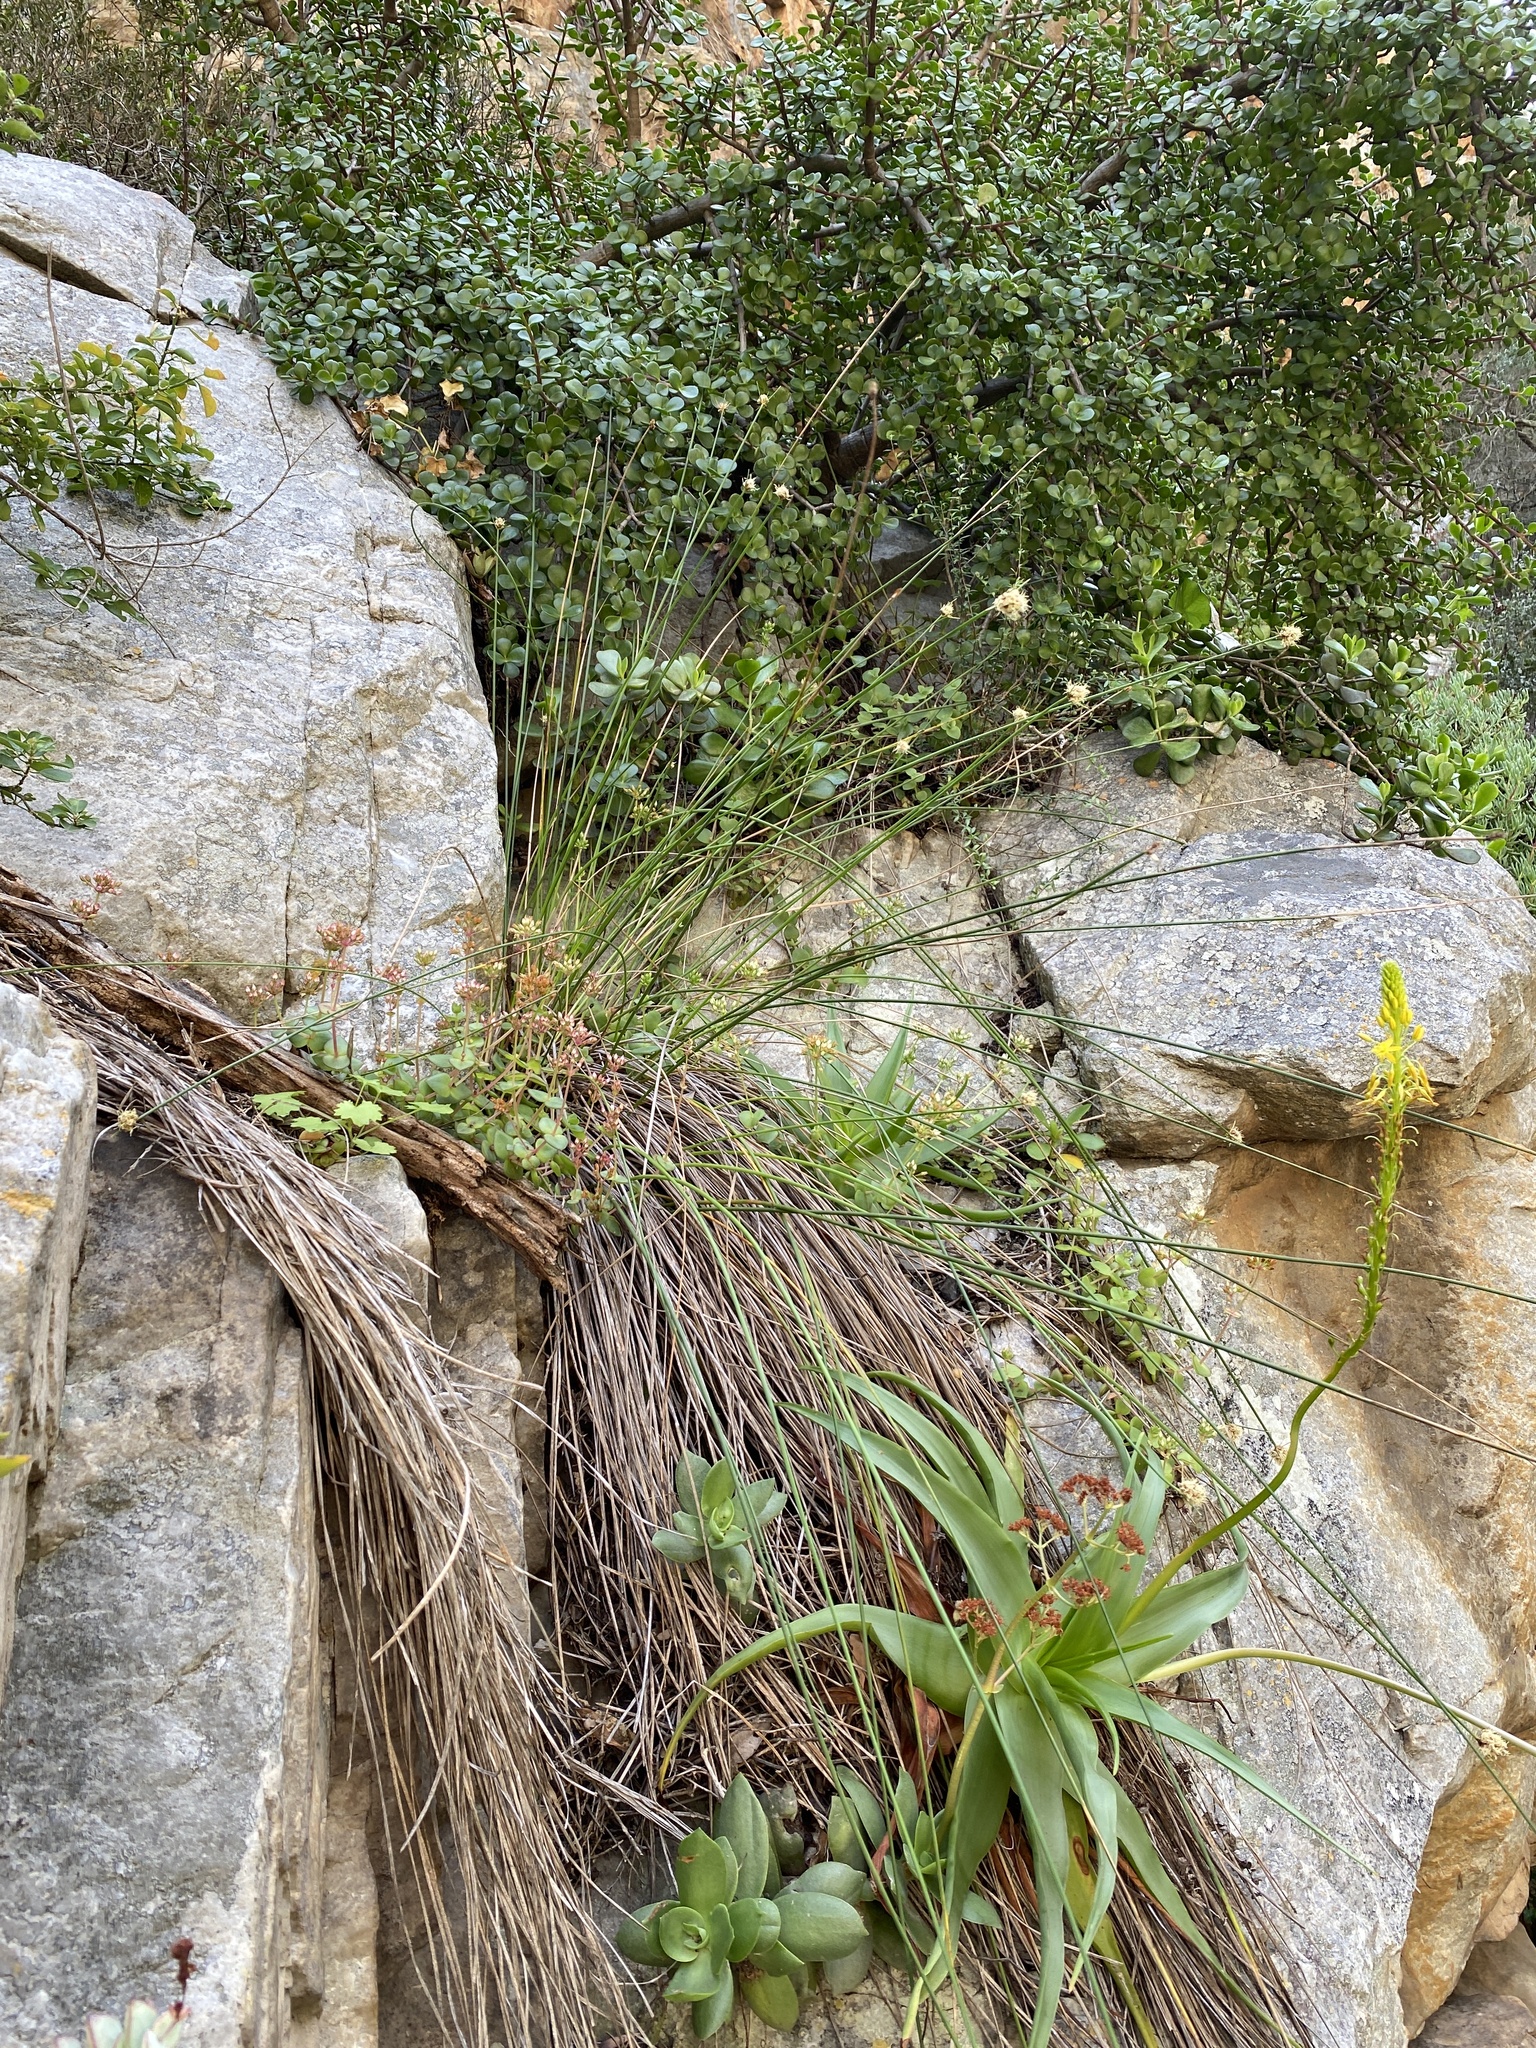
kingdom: Plantae
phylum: Tracheophyta
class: Liliopsida
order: Poales
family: Cyperaceae
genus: Ficinia
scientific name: Ficinia brevifolia
